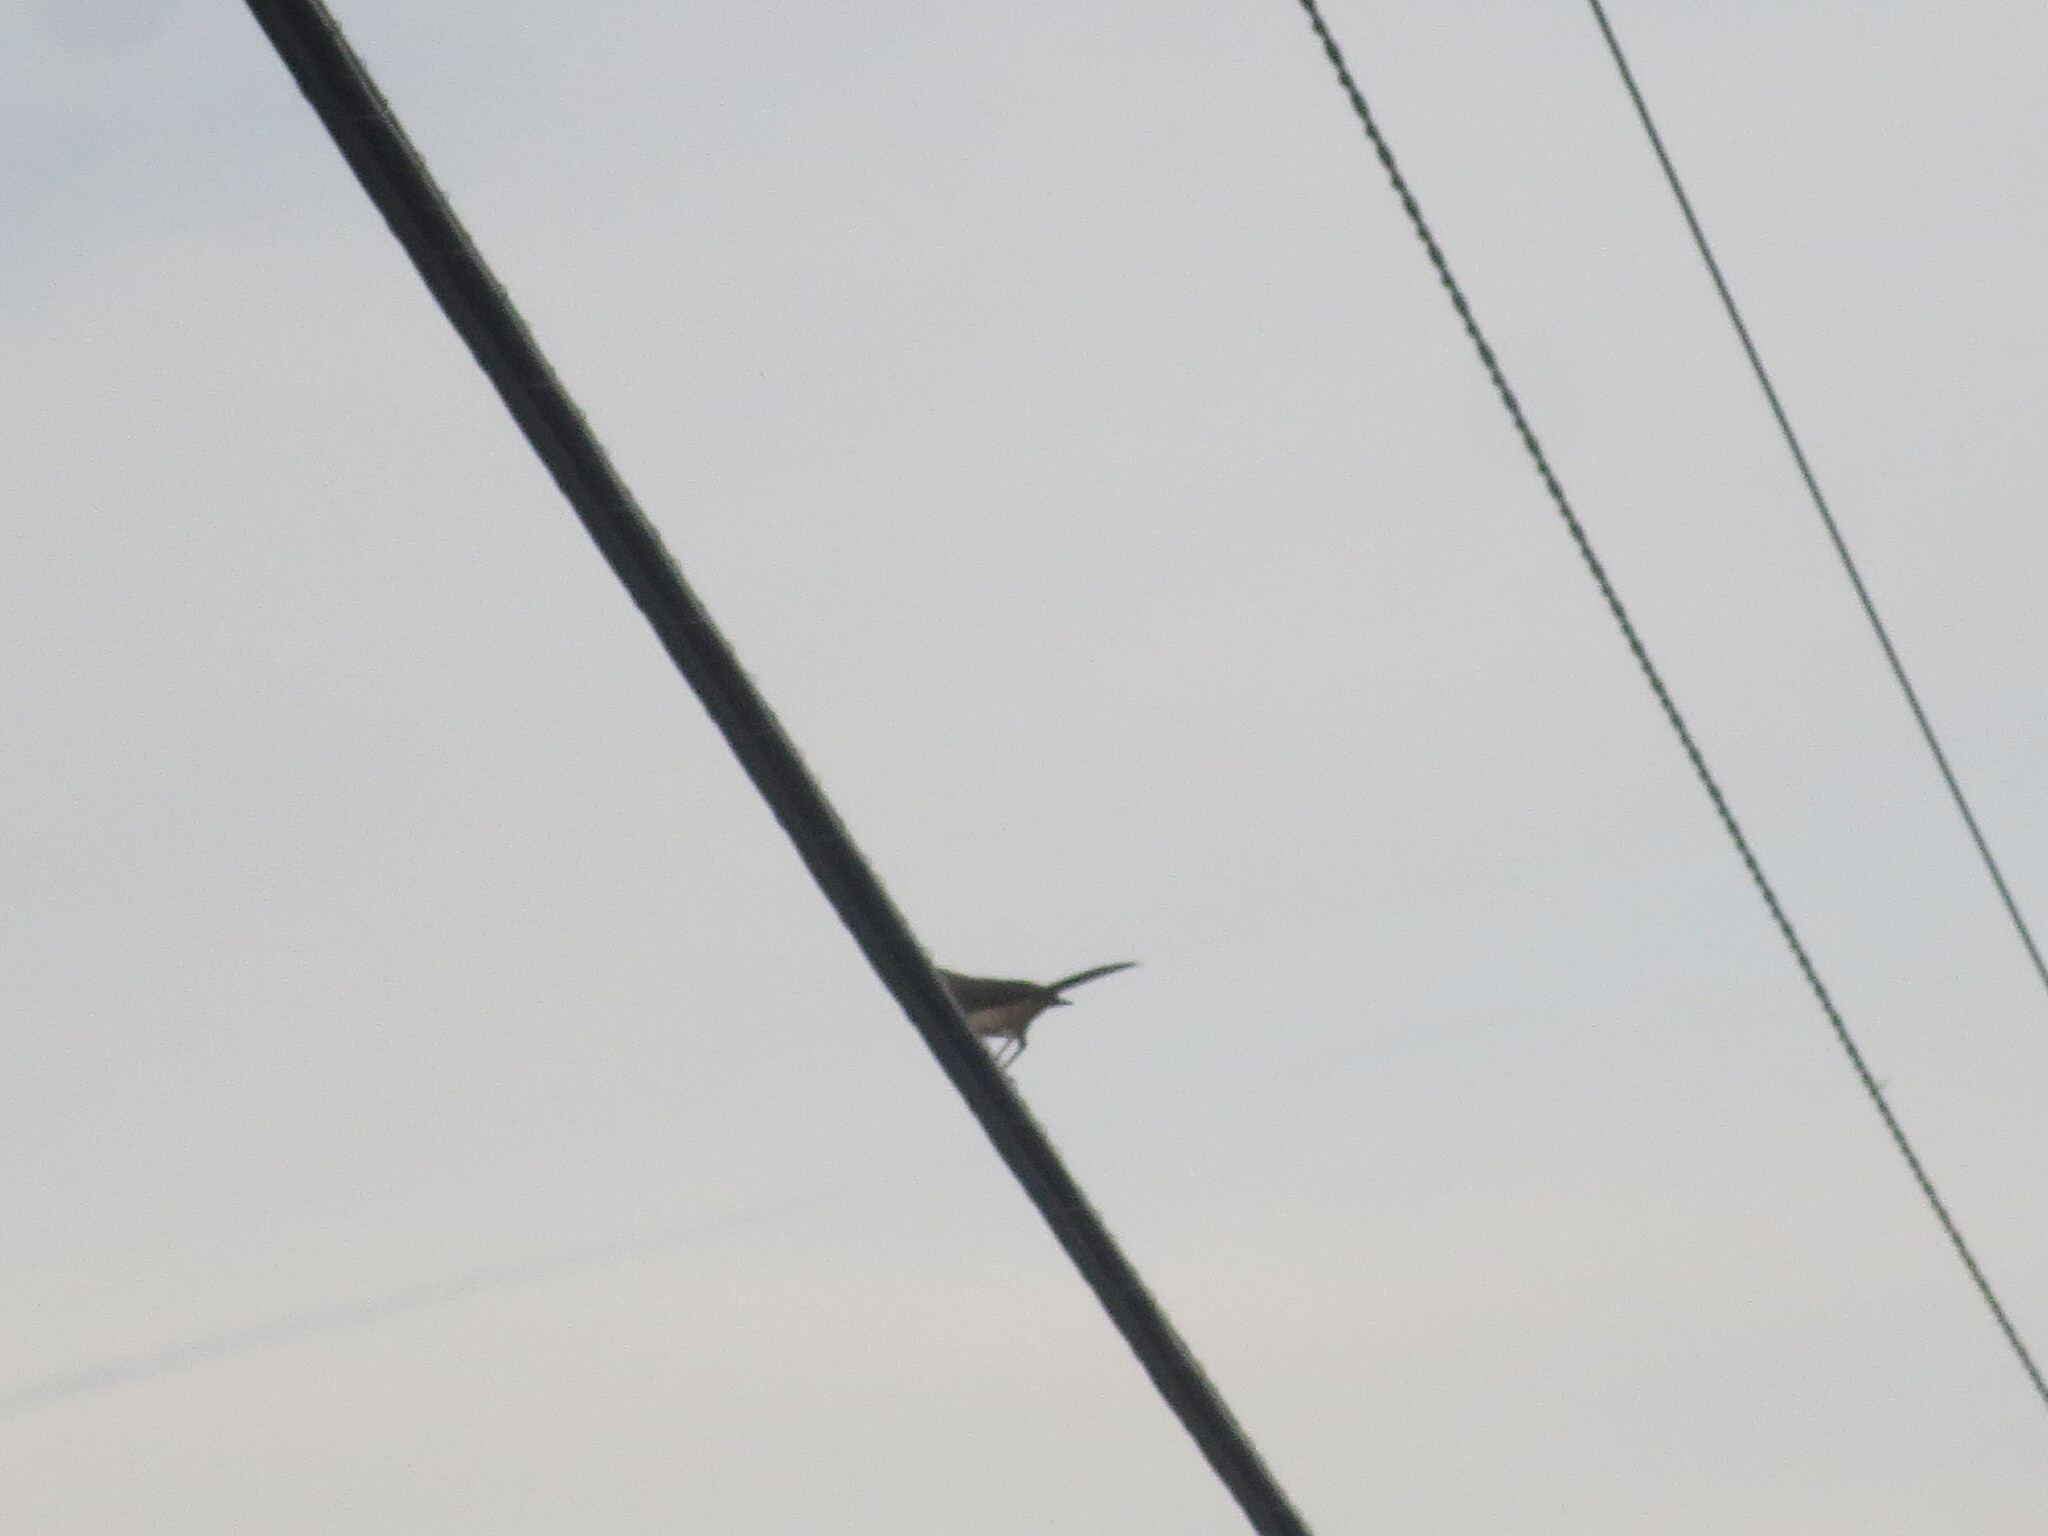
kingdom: Animalia
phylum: Chordata
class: Aves
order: Passeriformes
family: Mimidae
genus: Mimus
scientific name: Mimus polyglottos
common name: Northern mockingbird
